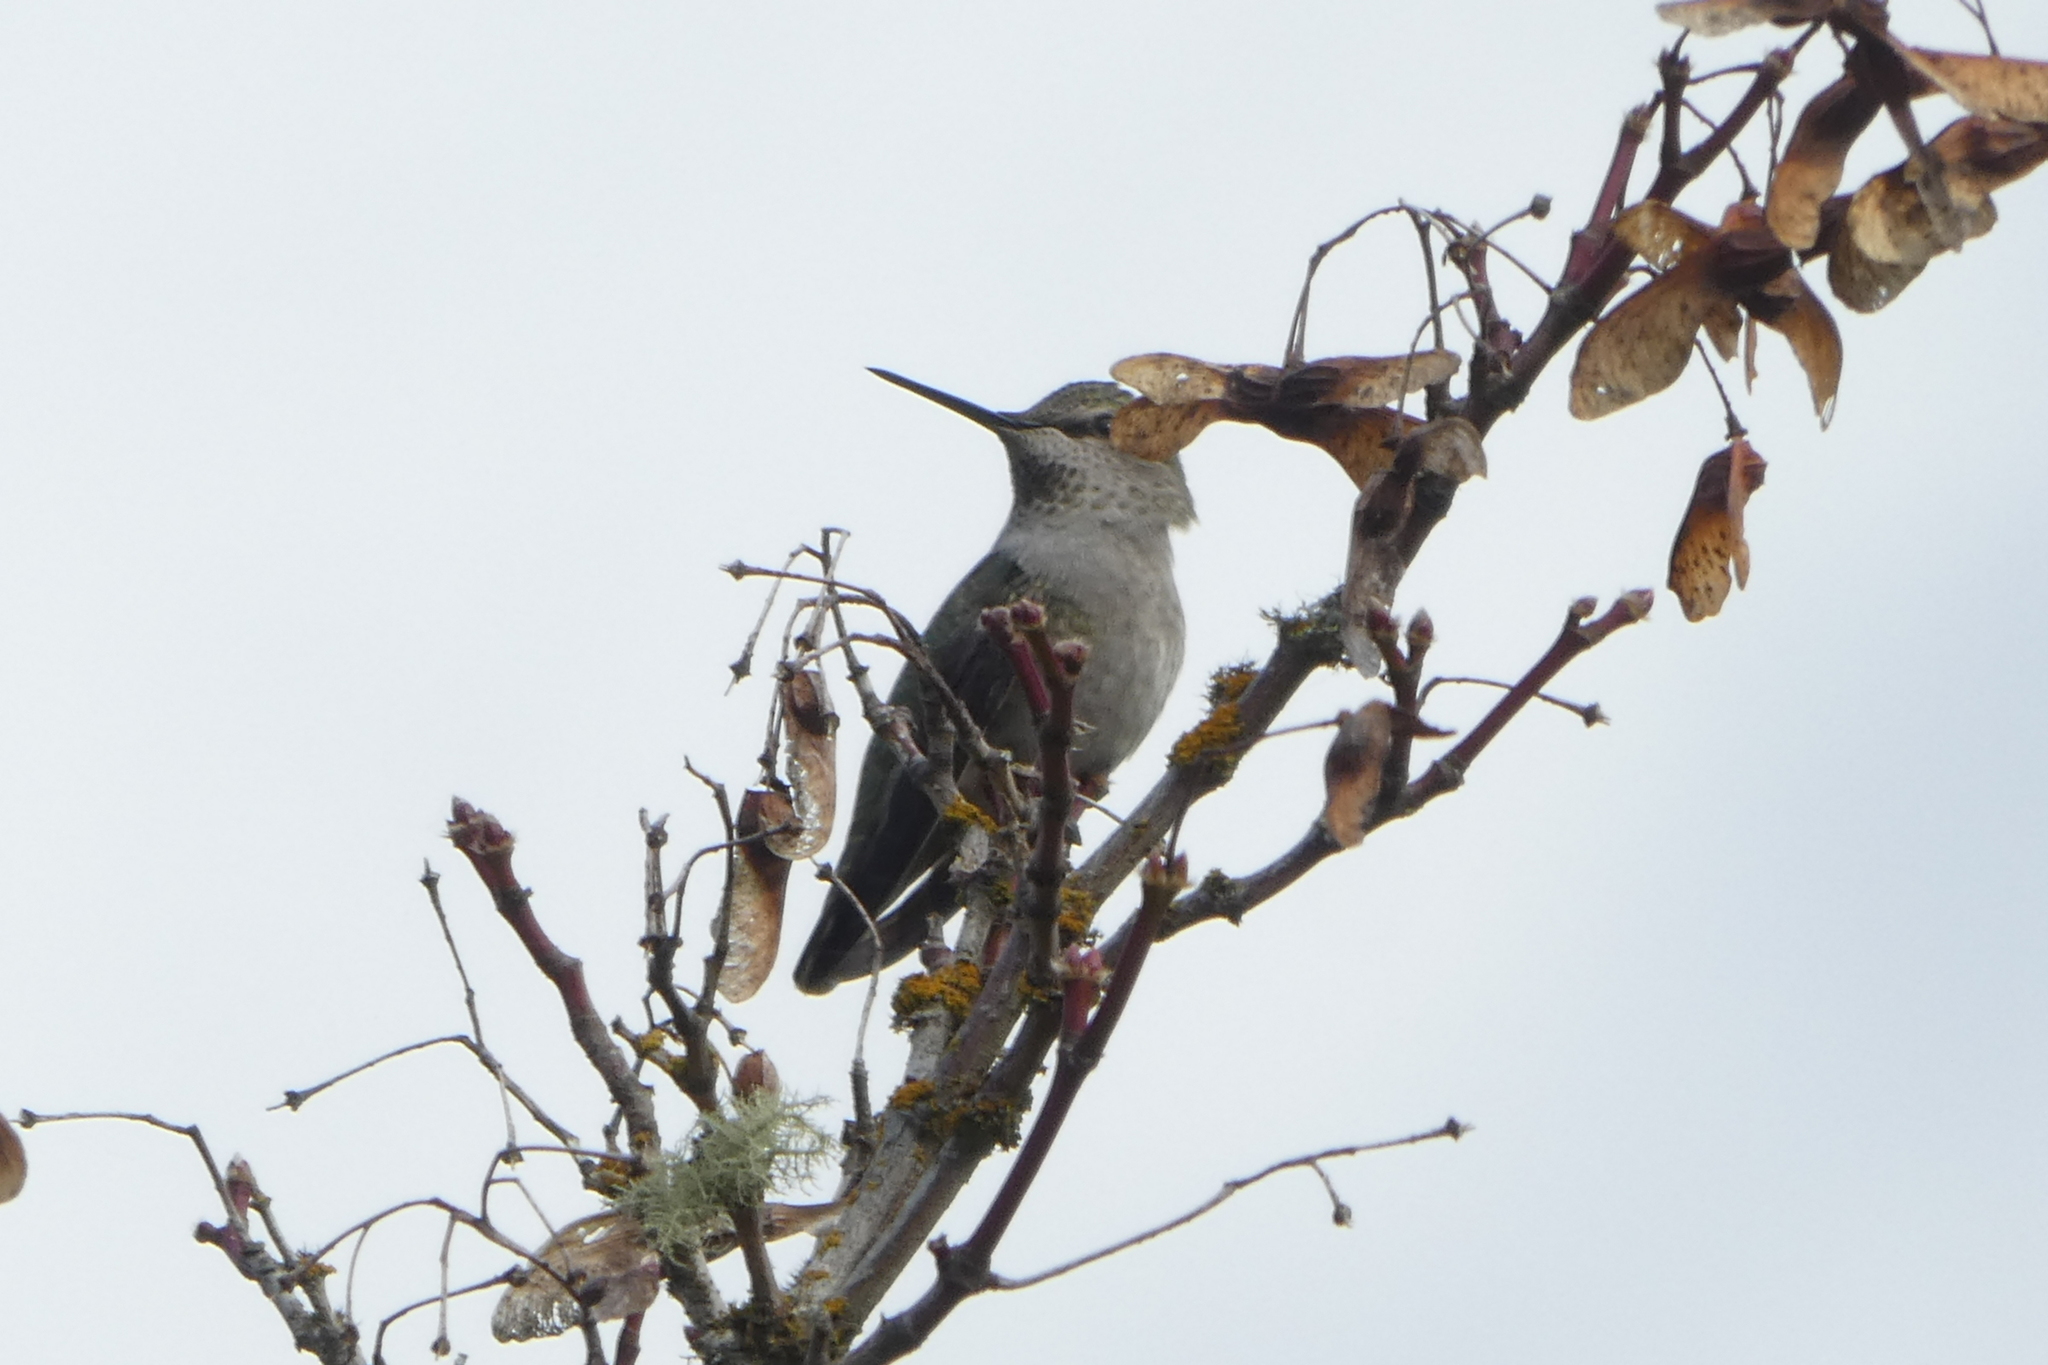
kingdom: Animalia
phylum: Chordata
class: Aves
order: Apodiformes
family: Trochilidae
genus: Calypte
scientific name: Calypte anna
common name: Anna's hummingbird
